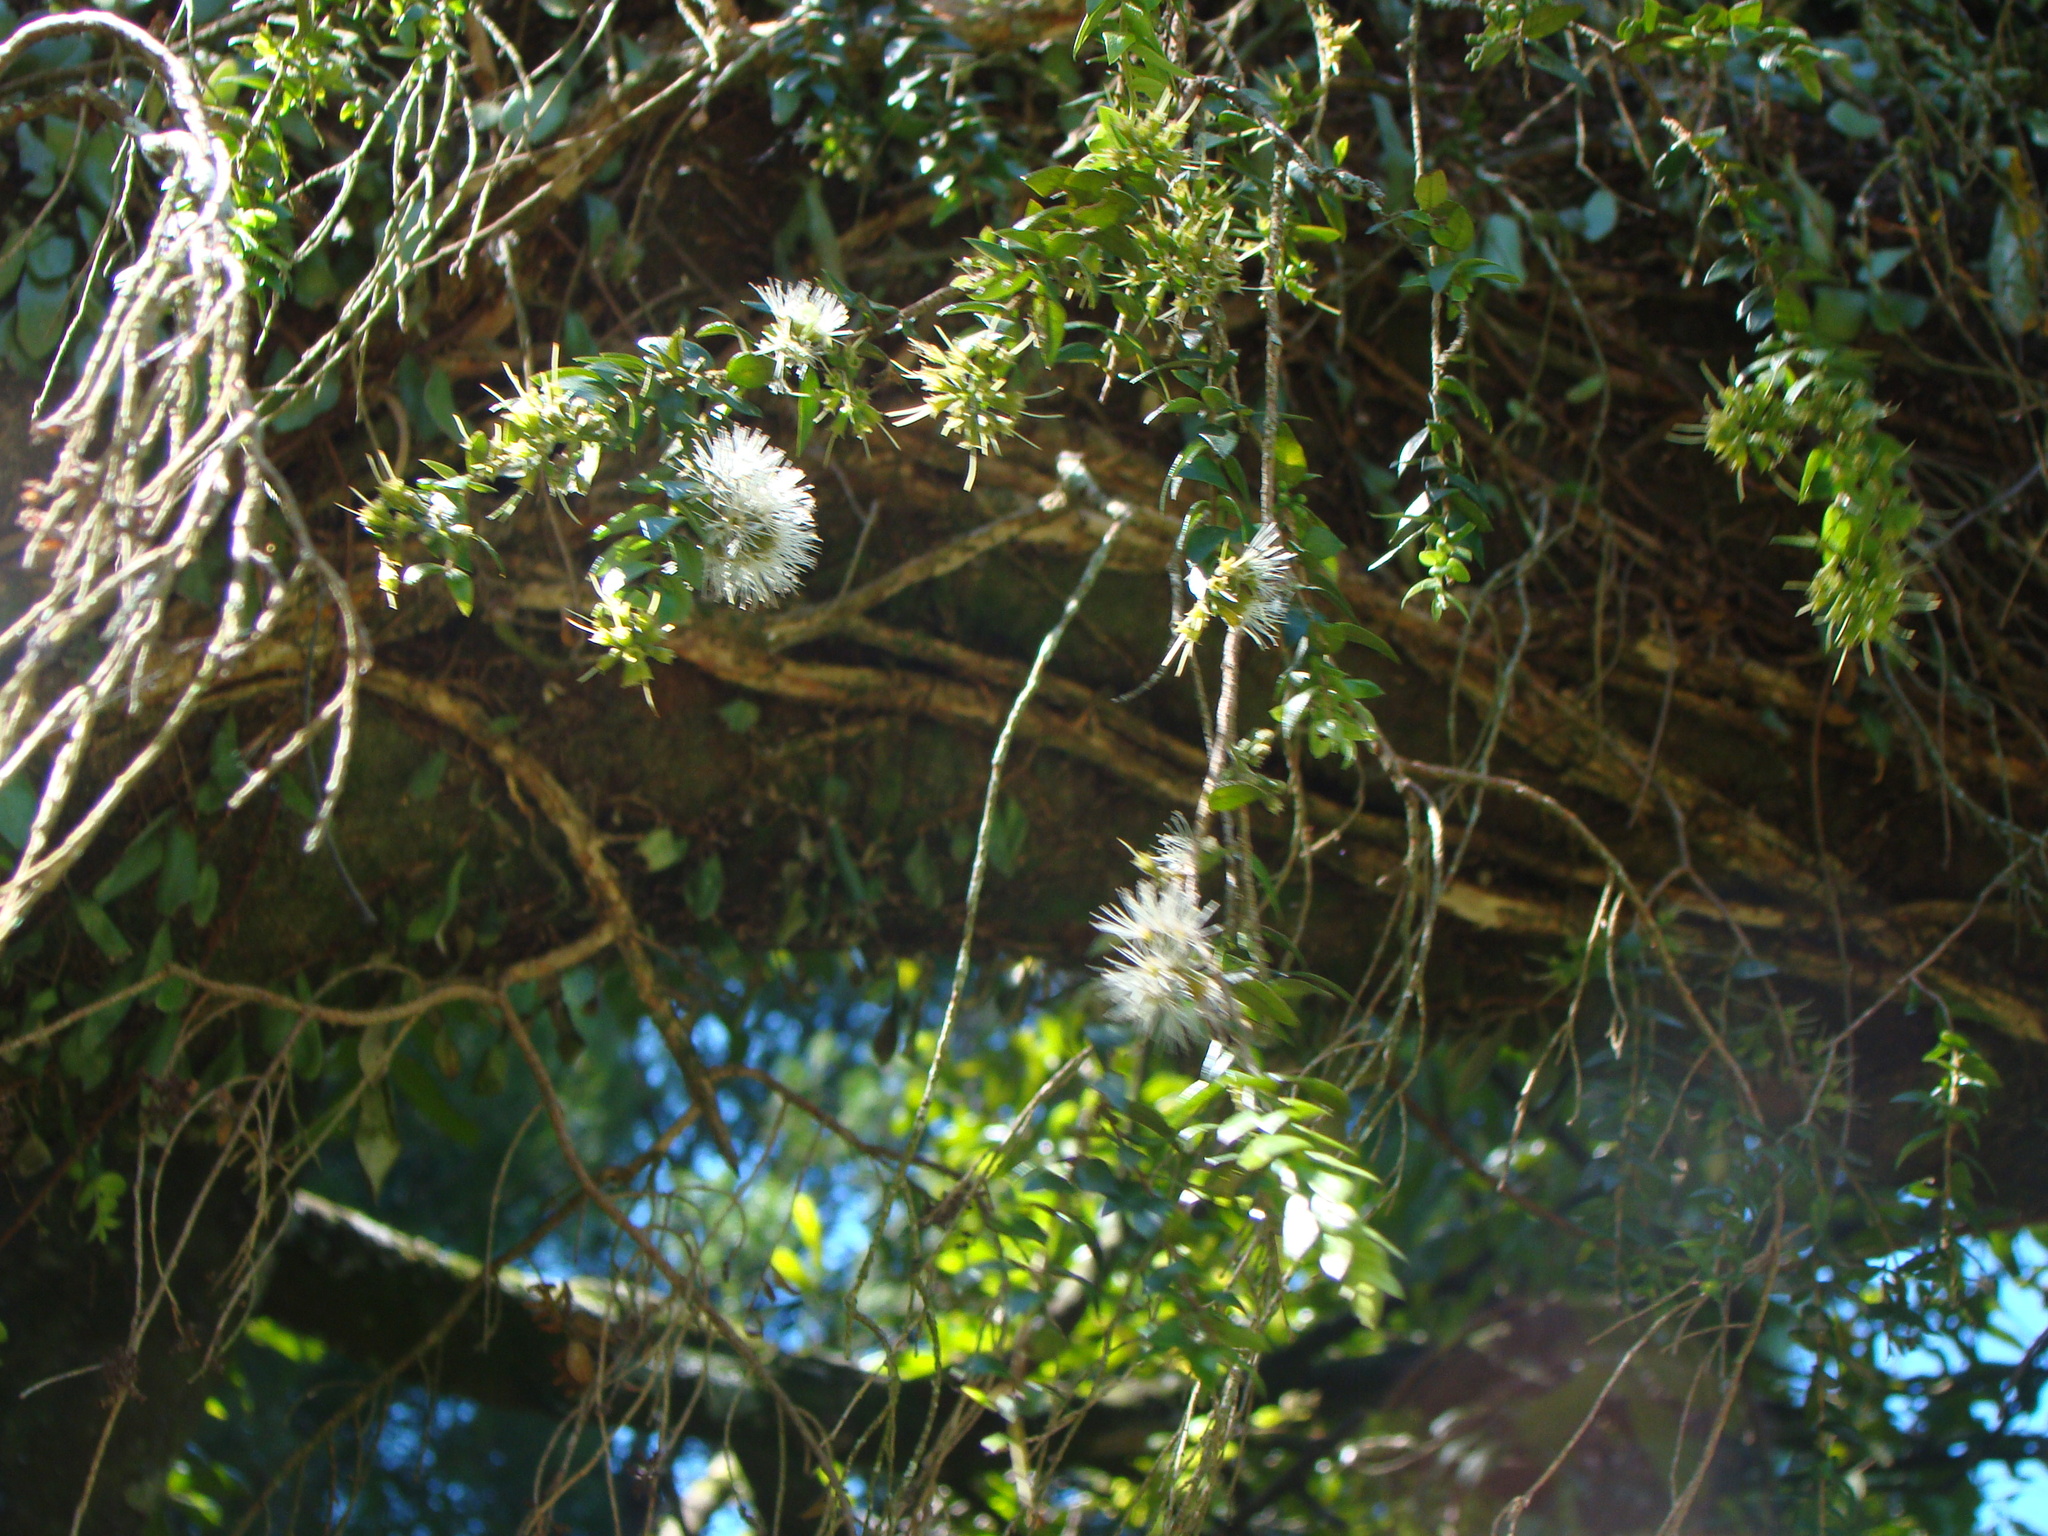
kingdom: Plantae
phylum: Tracheophyta
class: Magnoliopsida
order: Myrtales
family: Myrtaceae
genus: Metrosideros
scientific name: Metrosideros colensoi
